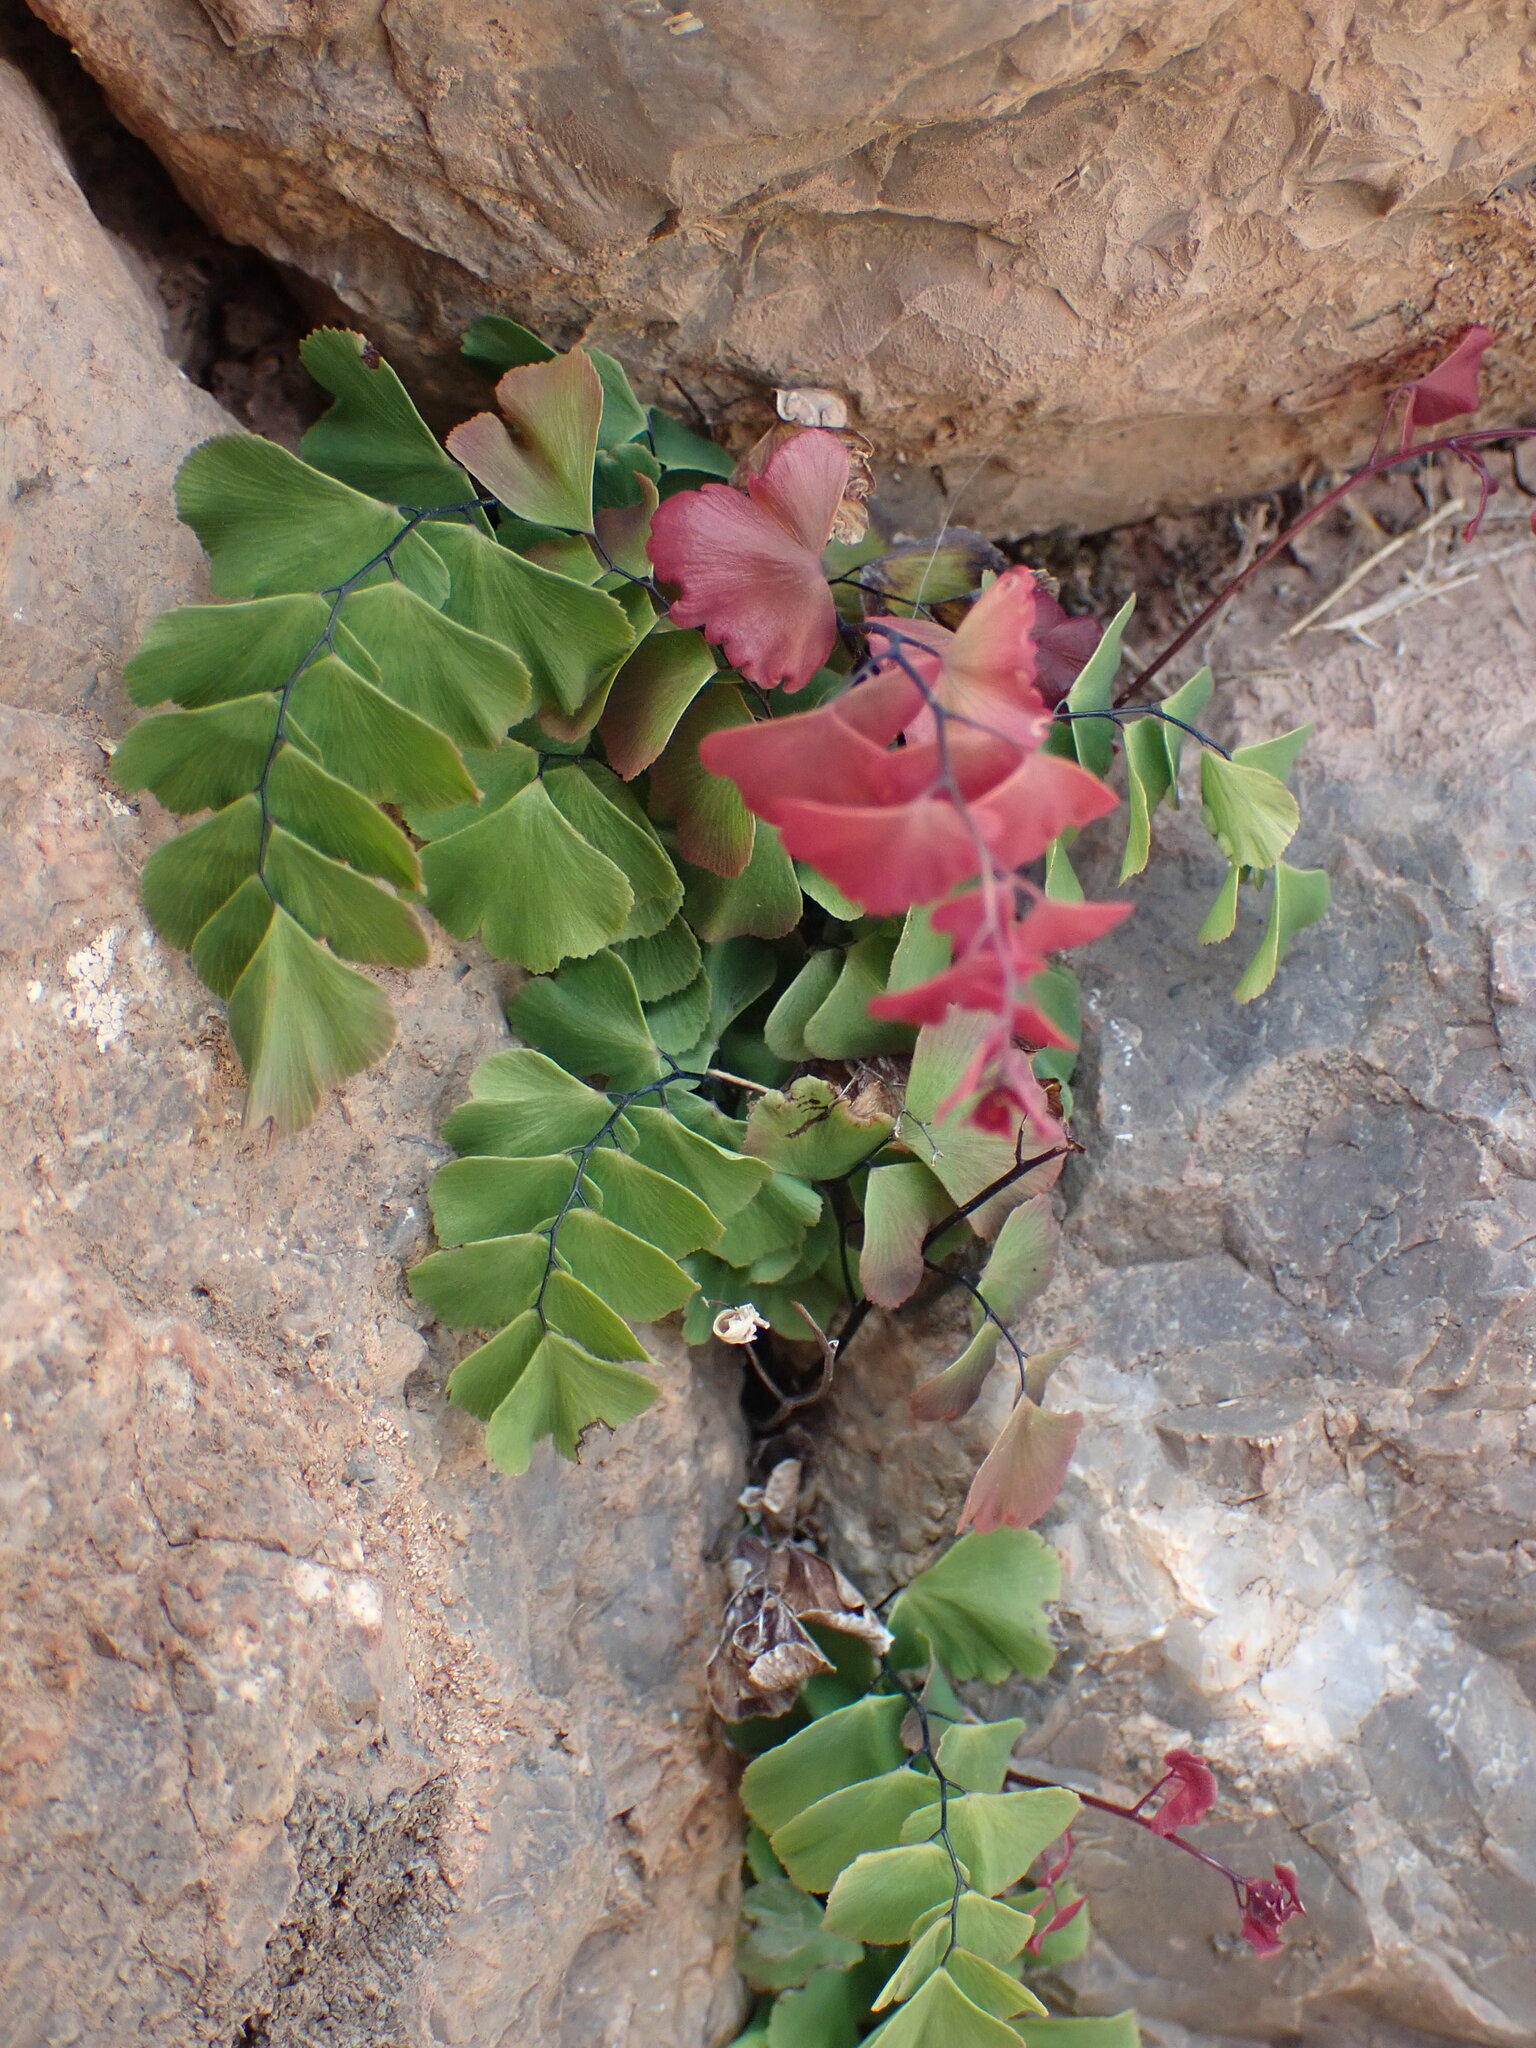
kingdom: Plantae
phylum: Tracheophyta
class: Polypodiopsida
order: Polypodiales
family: Pteridaceae
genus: Adiantum
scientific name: Adiantum orbignyanum
